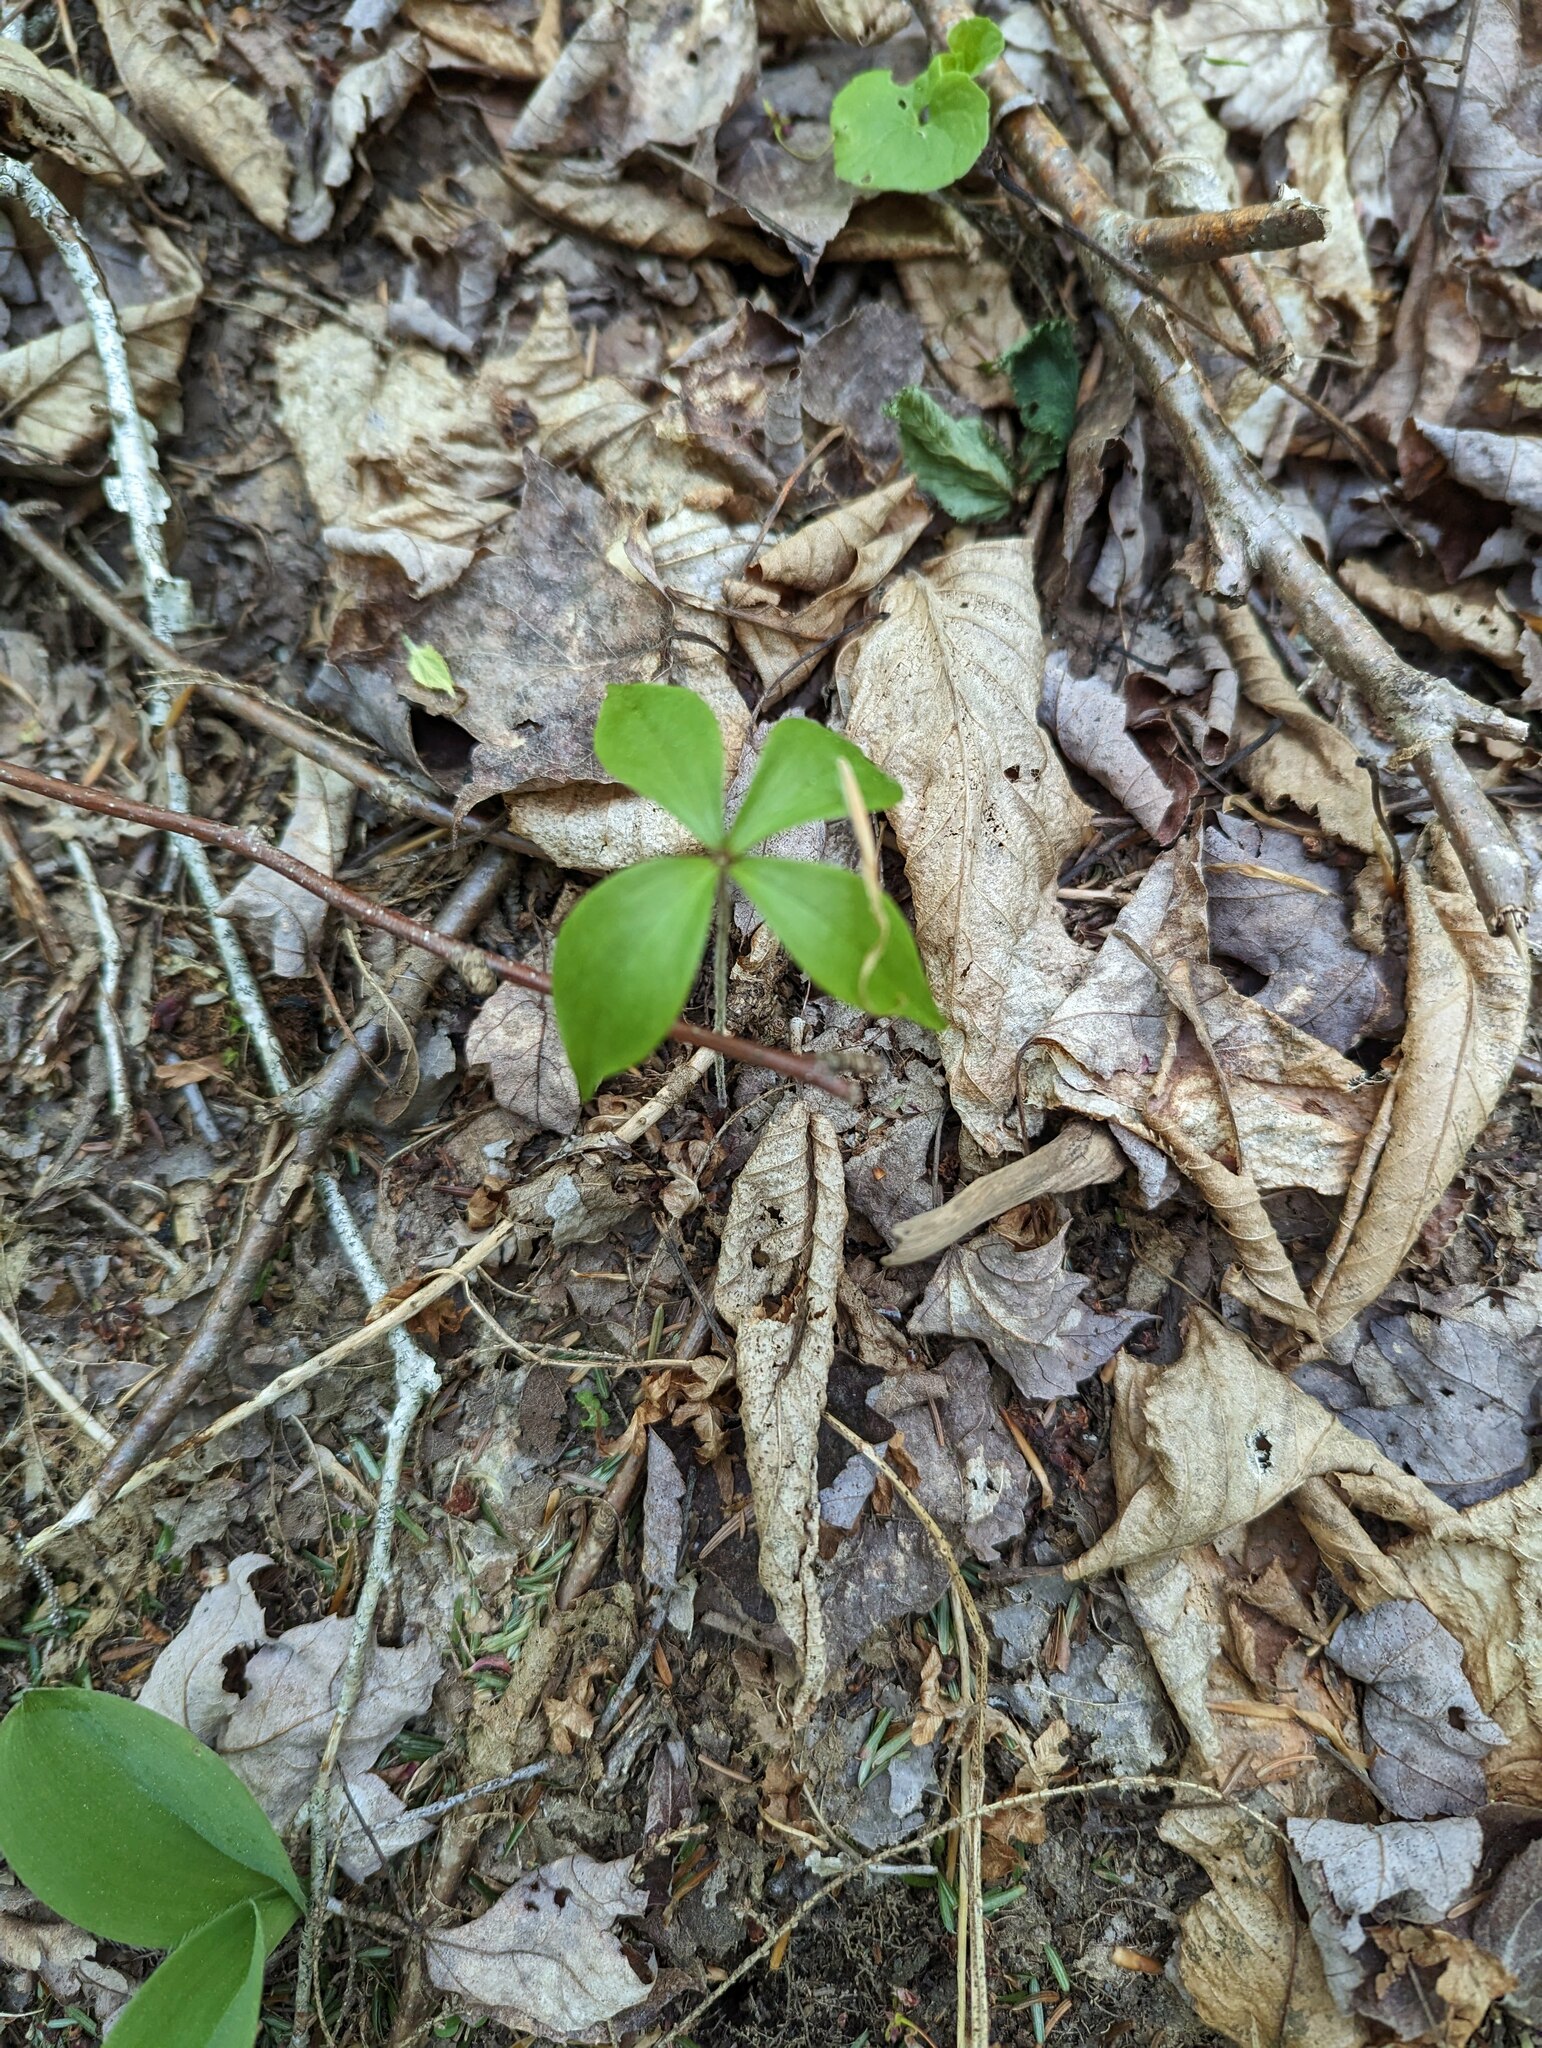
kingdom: Plantae
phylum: Tracheophyta
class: Liliopsida
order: Liliales
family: Liliaceae
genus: Medeola
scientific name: Medeola virginiana
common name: Indian cucumber-root
